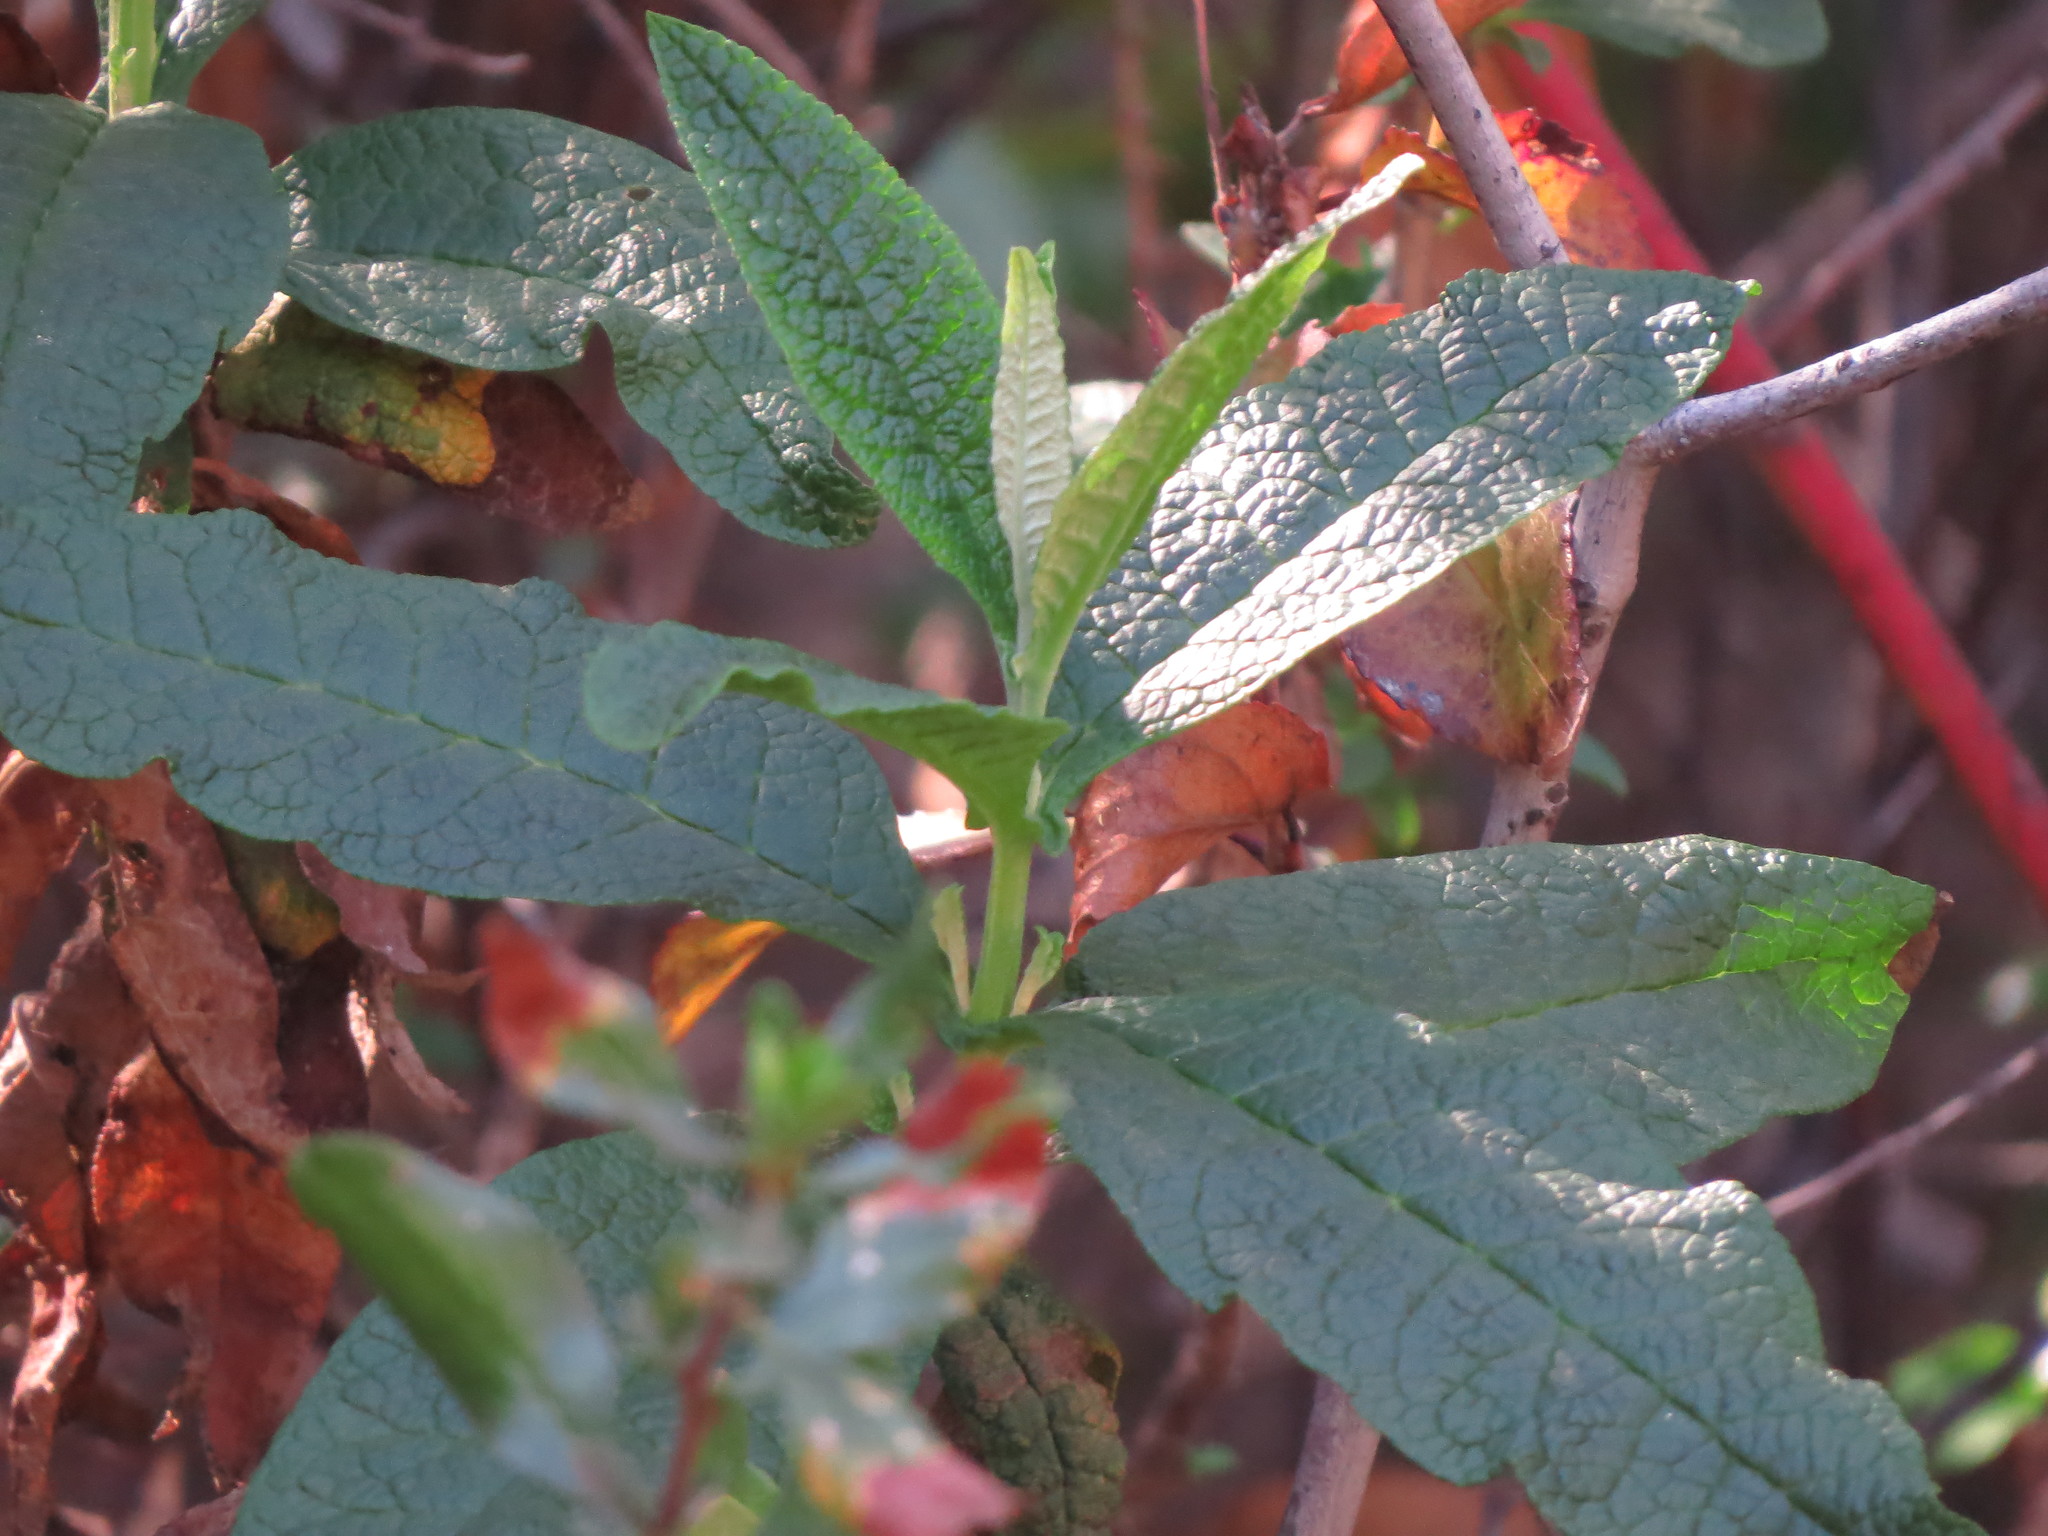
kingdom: Plantae
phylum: Tracheophyta
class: Magnoliopsida
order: Lamiales
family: Scrophulariaceae
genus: Buddleja
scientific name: Buddleja globosa
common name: Orange-ball-tree
